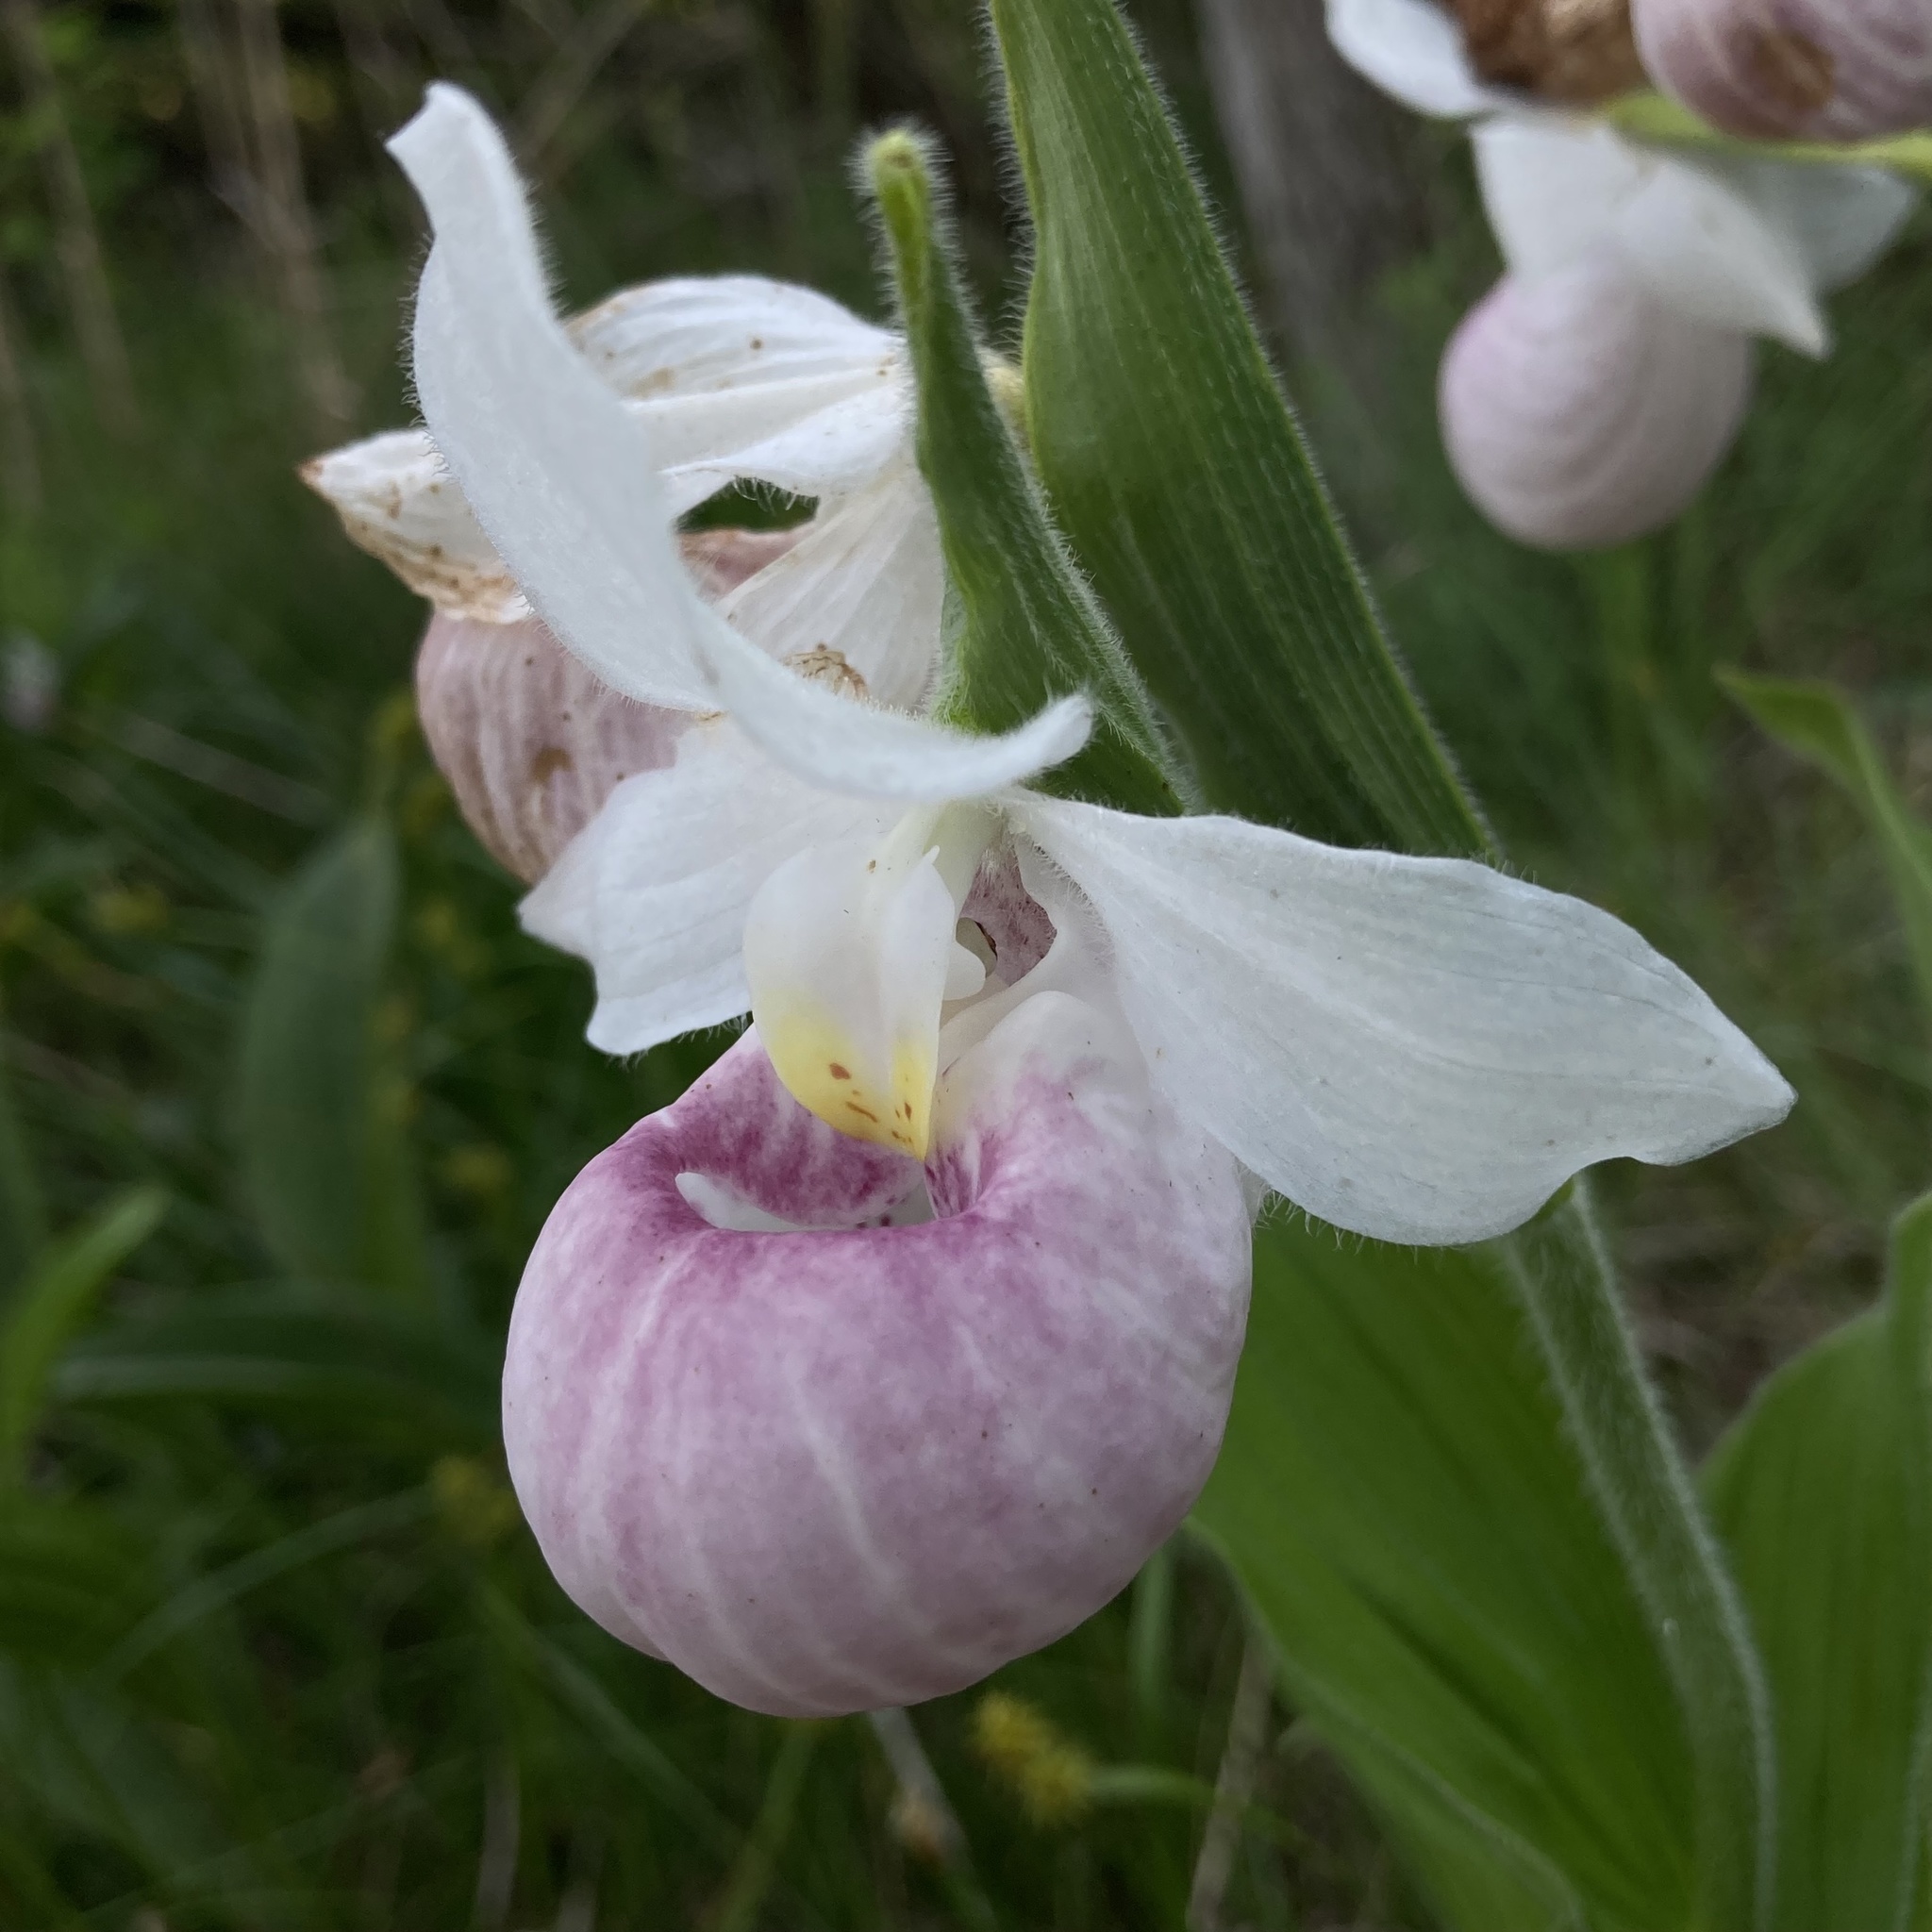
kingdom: Plantae
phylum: Tracheophyta
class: Liliopsida
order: Asparagales
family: Orchidaceae
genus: Cypripedium
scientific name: Cypripedium reginae
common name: Queen lady's-slipper
